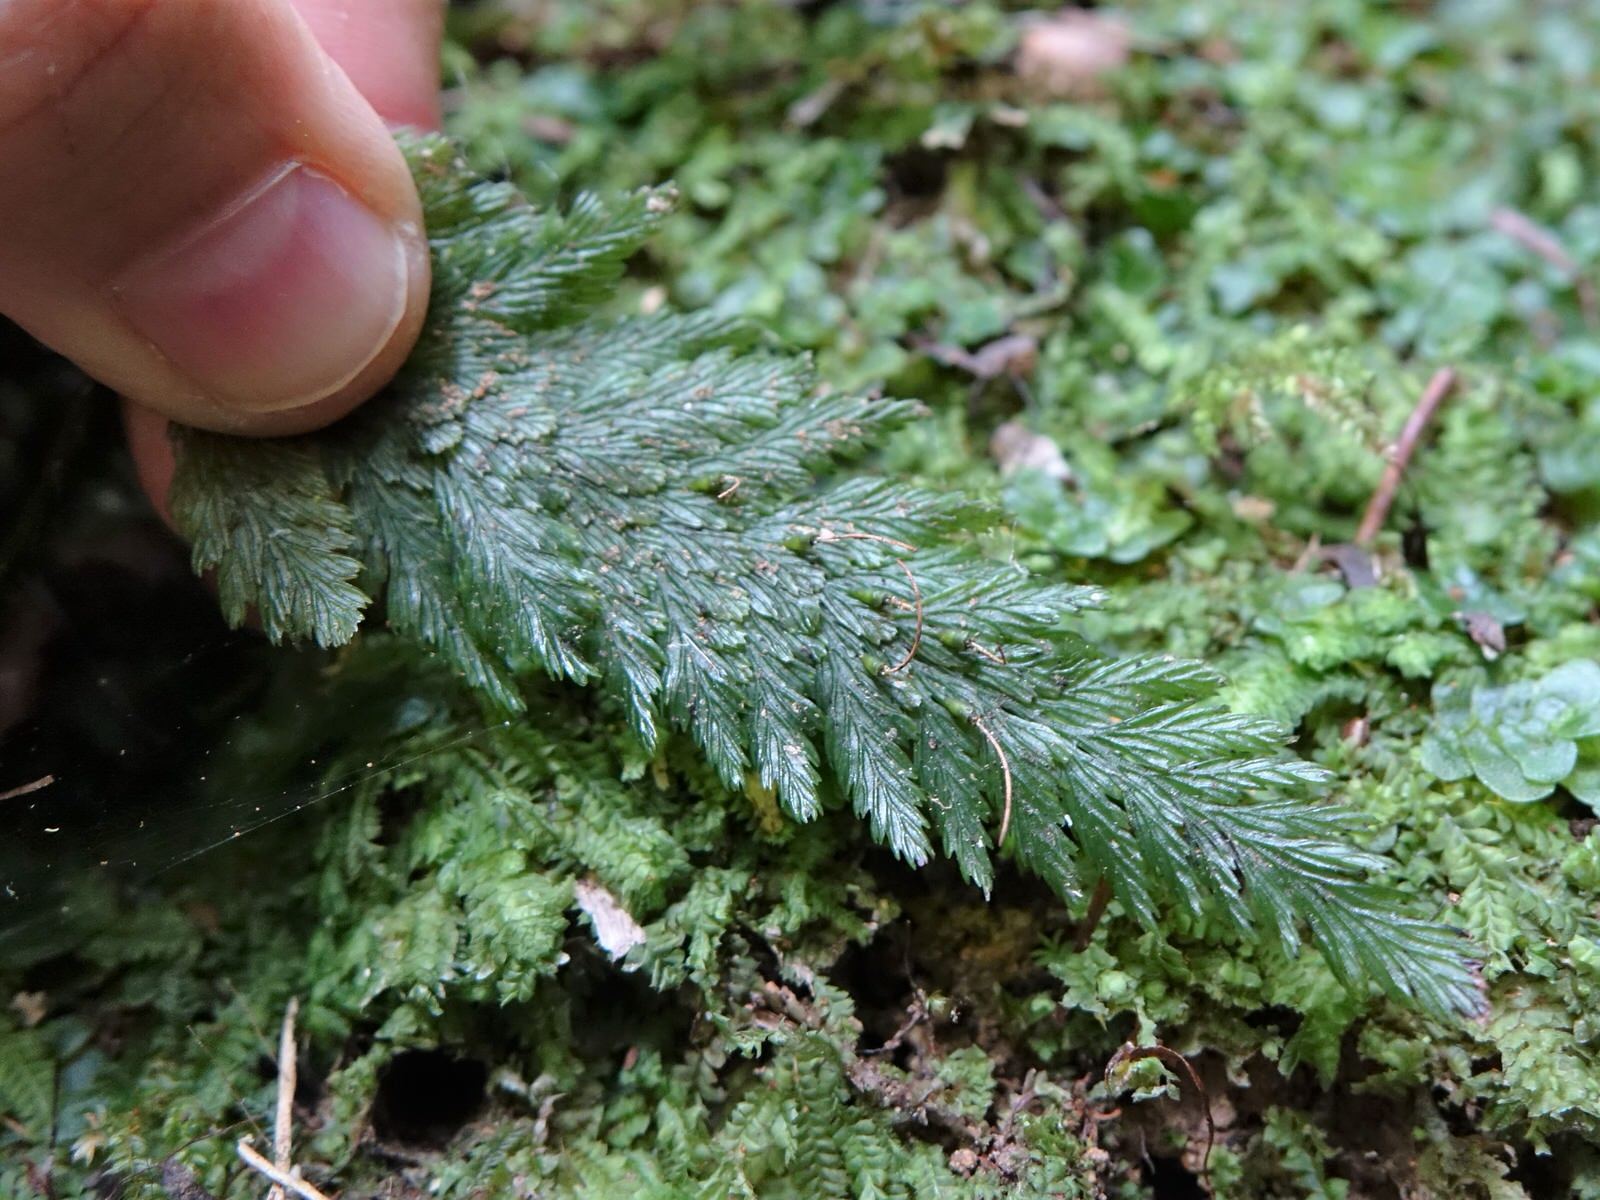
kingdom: Plantae
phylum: Tracheophyta
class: Polypodiopsida
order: Hymenophyllales
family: Hymenophyllaceae
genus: Abrodictyum
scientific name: Abrodictyum elongatum
